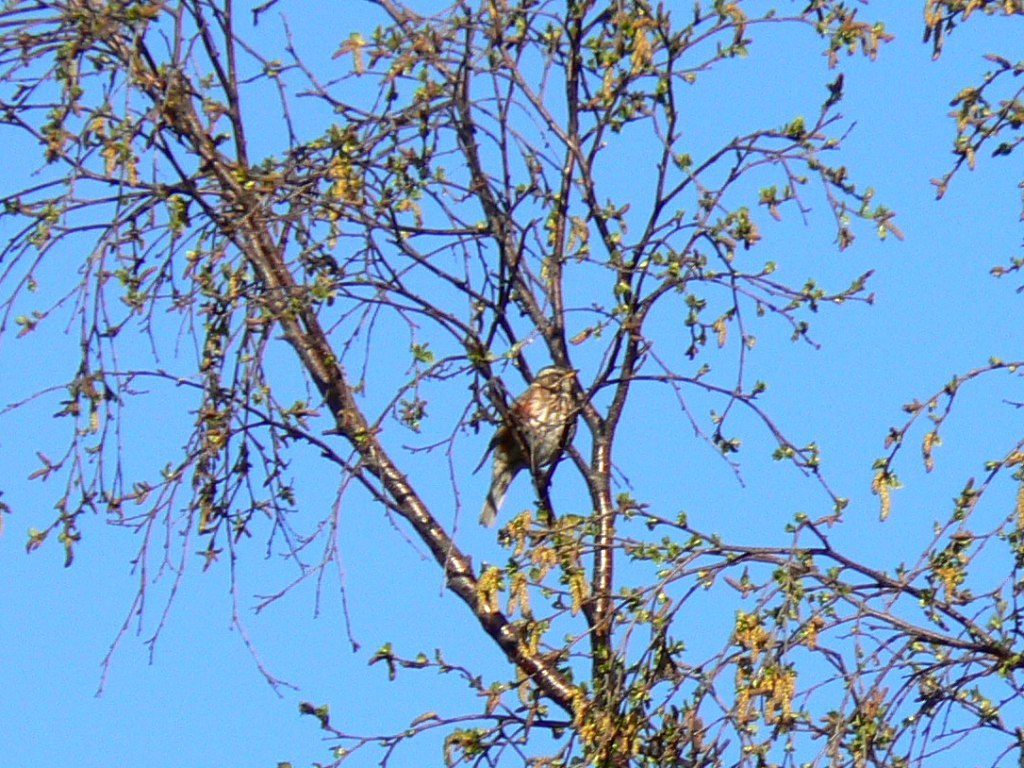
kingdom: Animalia
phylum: Chordata
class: Aves
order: Passeriformes
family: Turdidae
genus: Turdus
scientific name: Turdus iliacus
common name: Redwing
